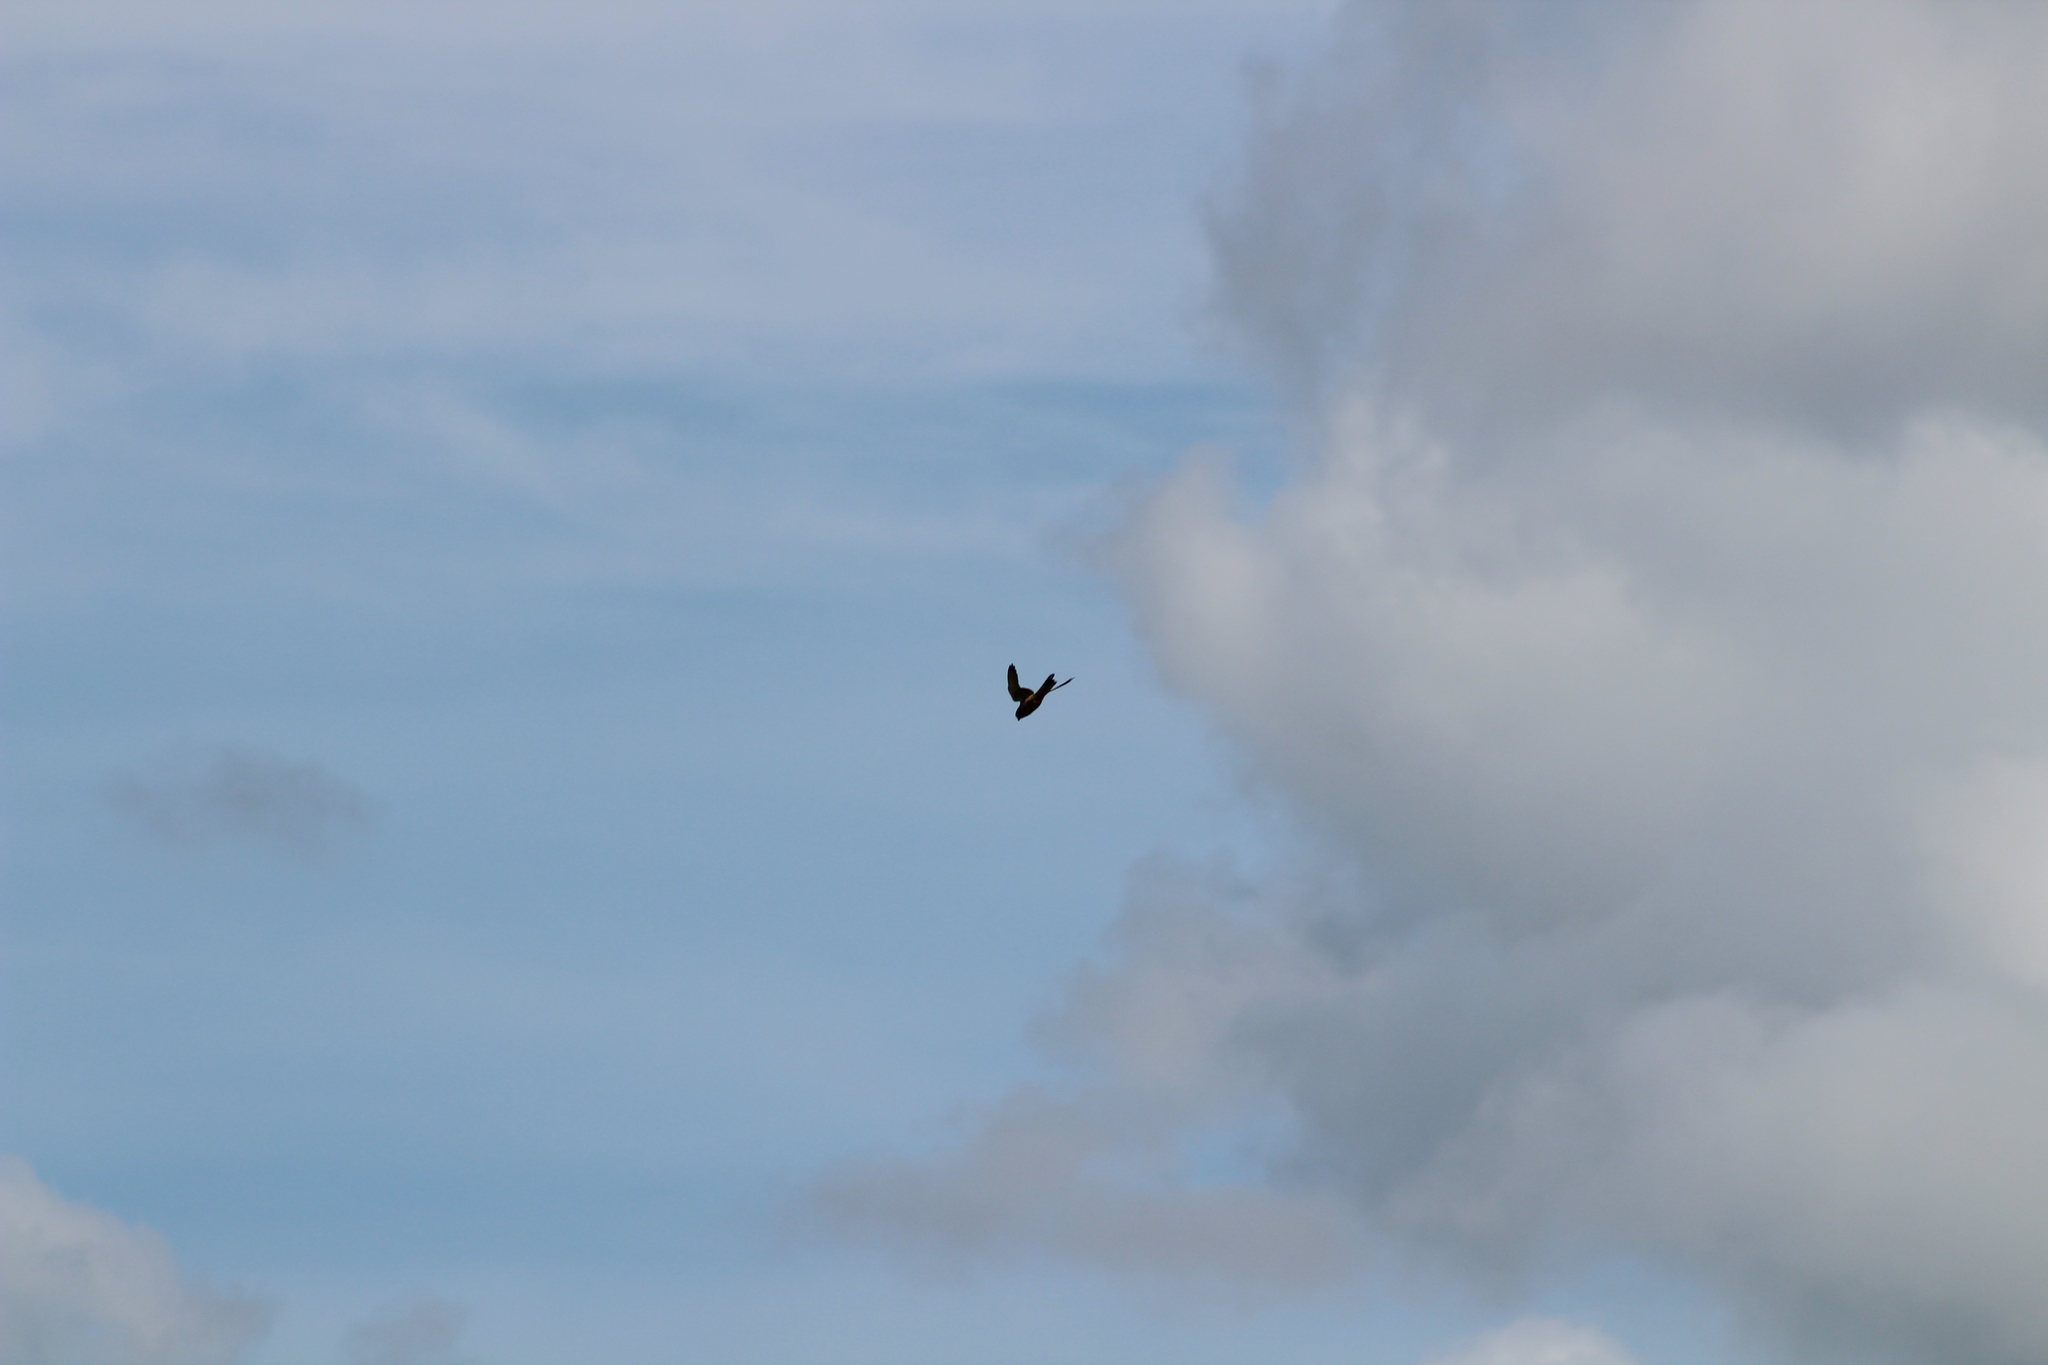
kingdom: Animalia
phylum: Chordata
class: Aves
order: Falconiformes
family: Falconidae
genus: Falco
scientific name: Falco tinnunculus
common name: Common kestrel
